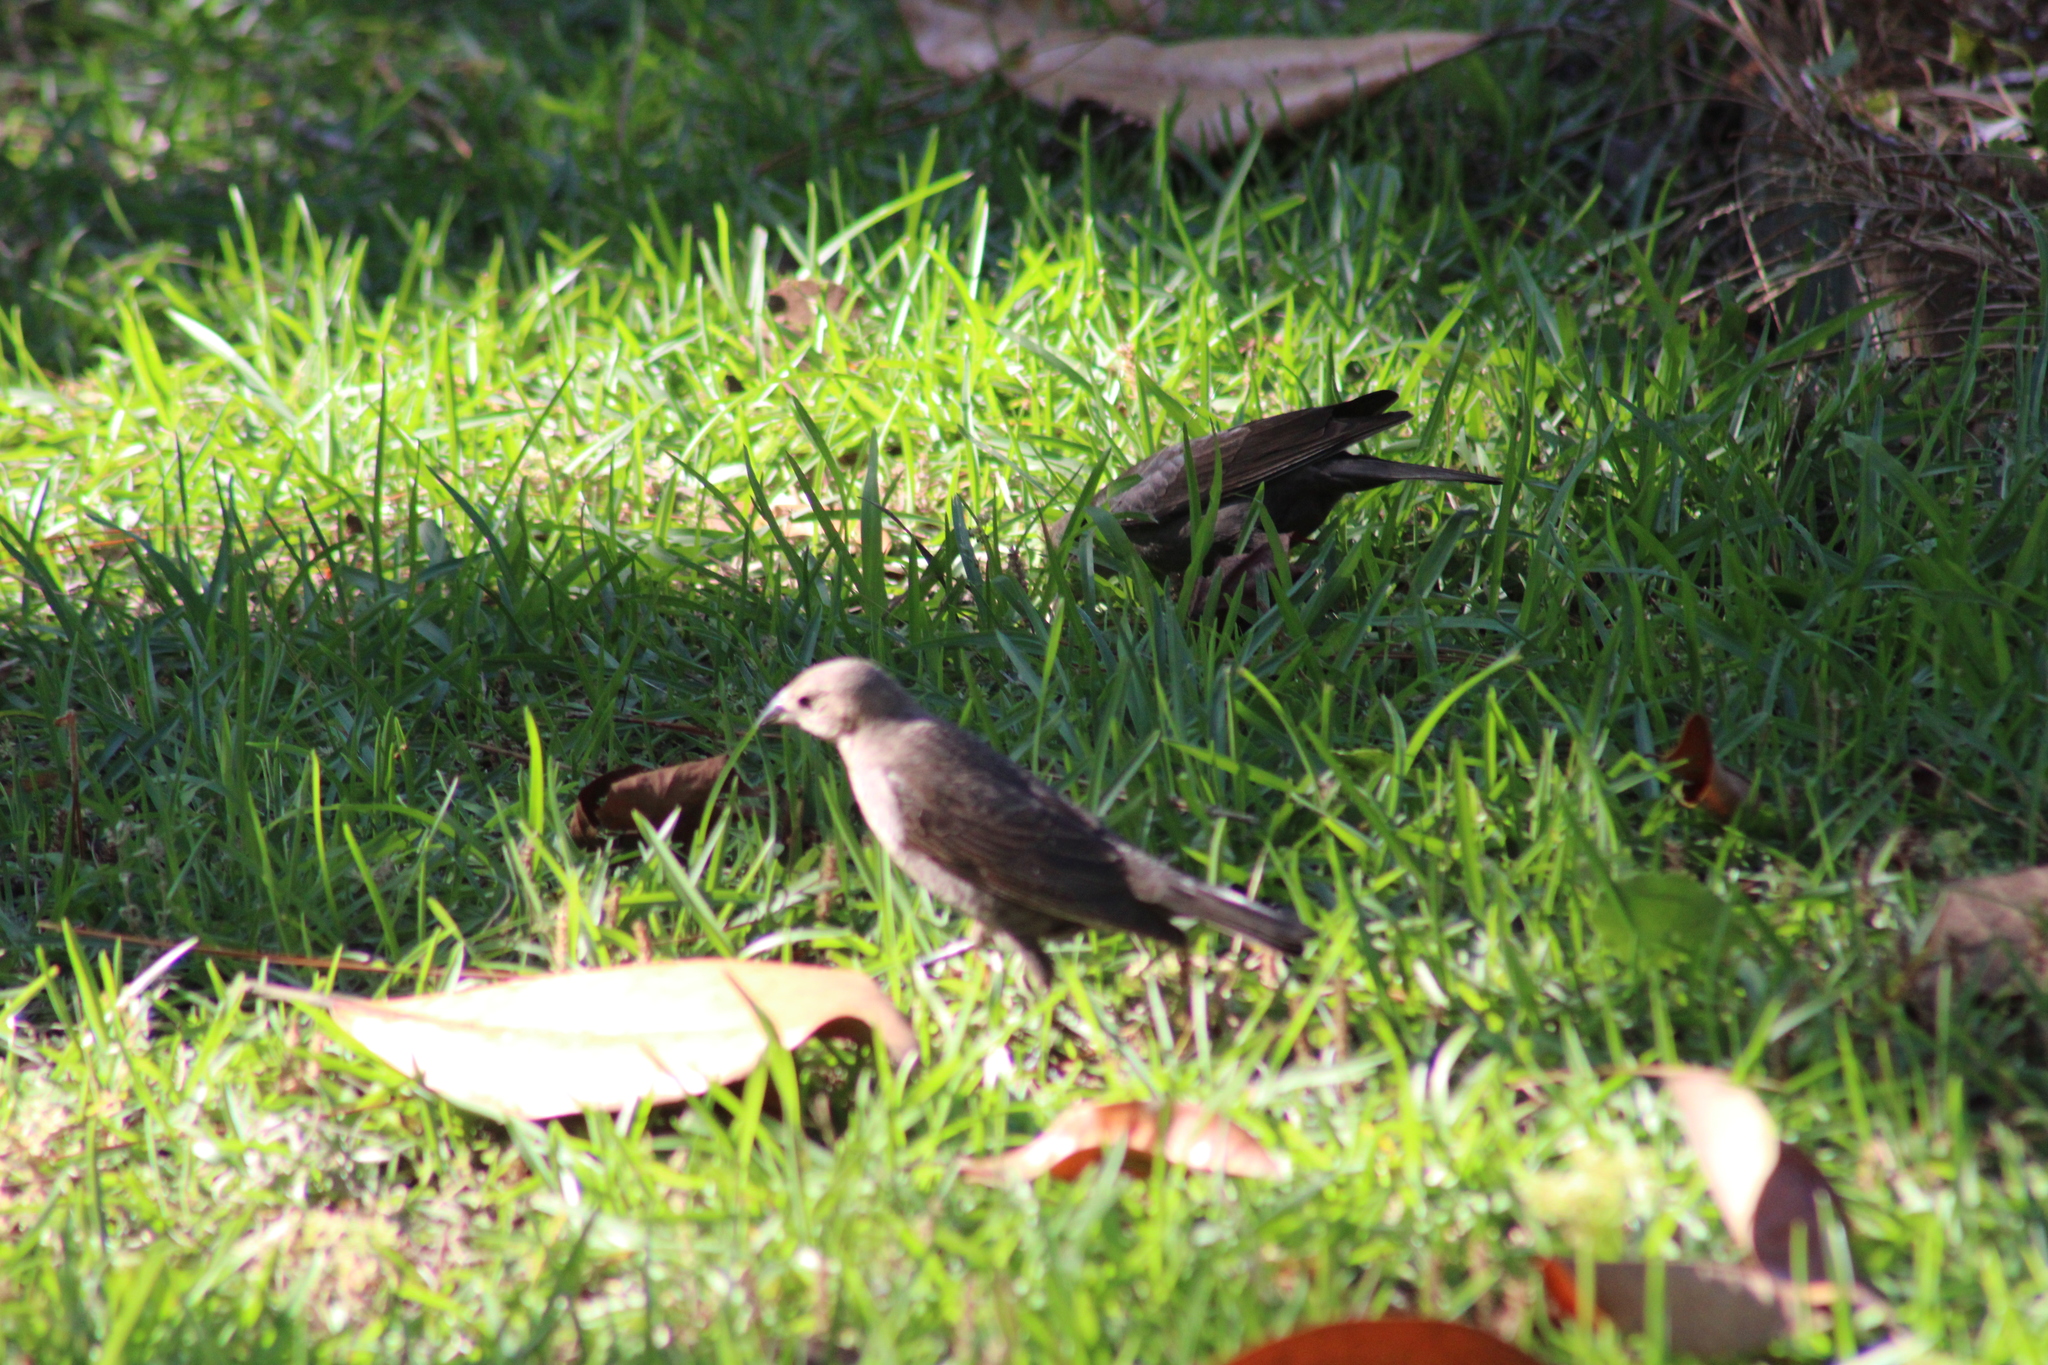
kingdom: Animalia
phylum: Chordata
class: Aves
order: Passeriformes
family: Icteridae
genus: Molothrus
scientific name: Molothrus ater
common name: Brown-headed cowbird
